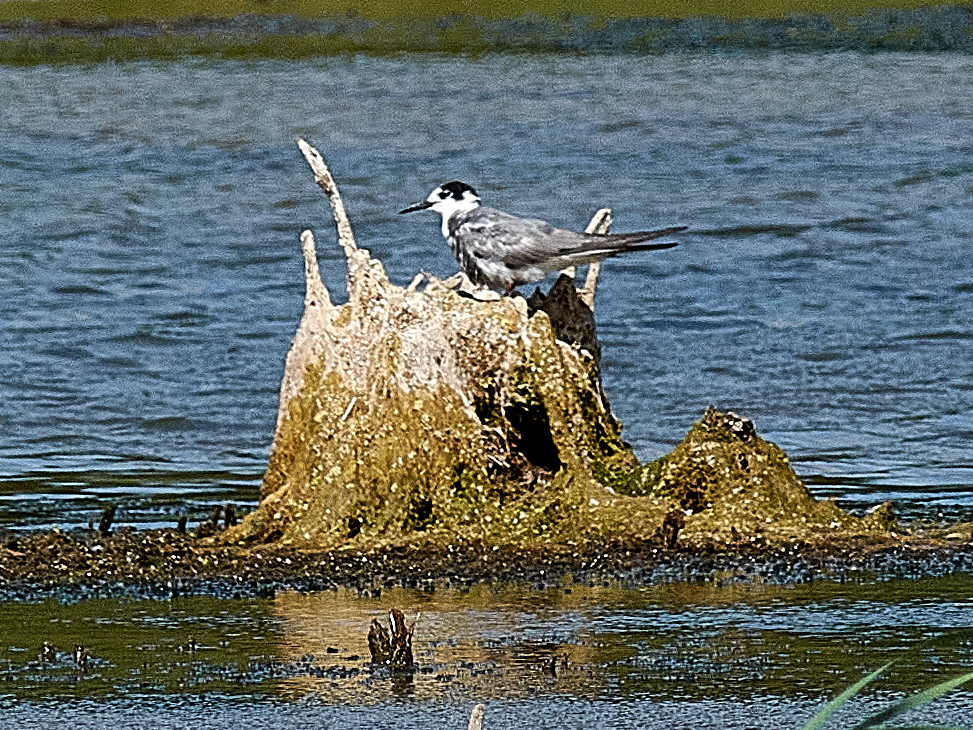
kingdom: Animalia
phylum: Chordata
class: Aves
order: Charadriiformes
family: Laridae
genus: Chlidonias
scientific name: Chlidonias niger
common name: Black tern
